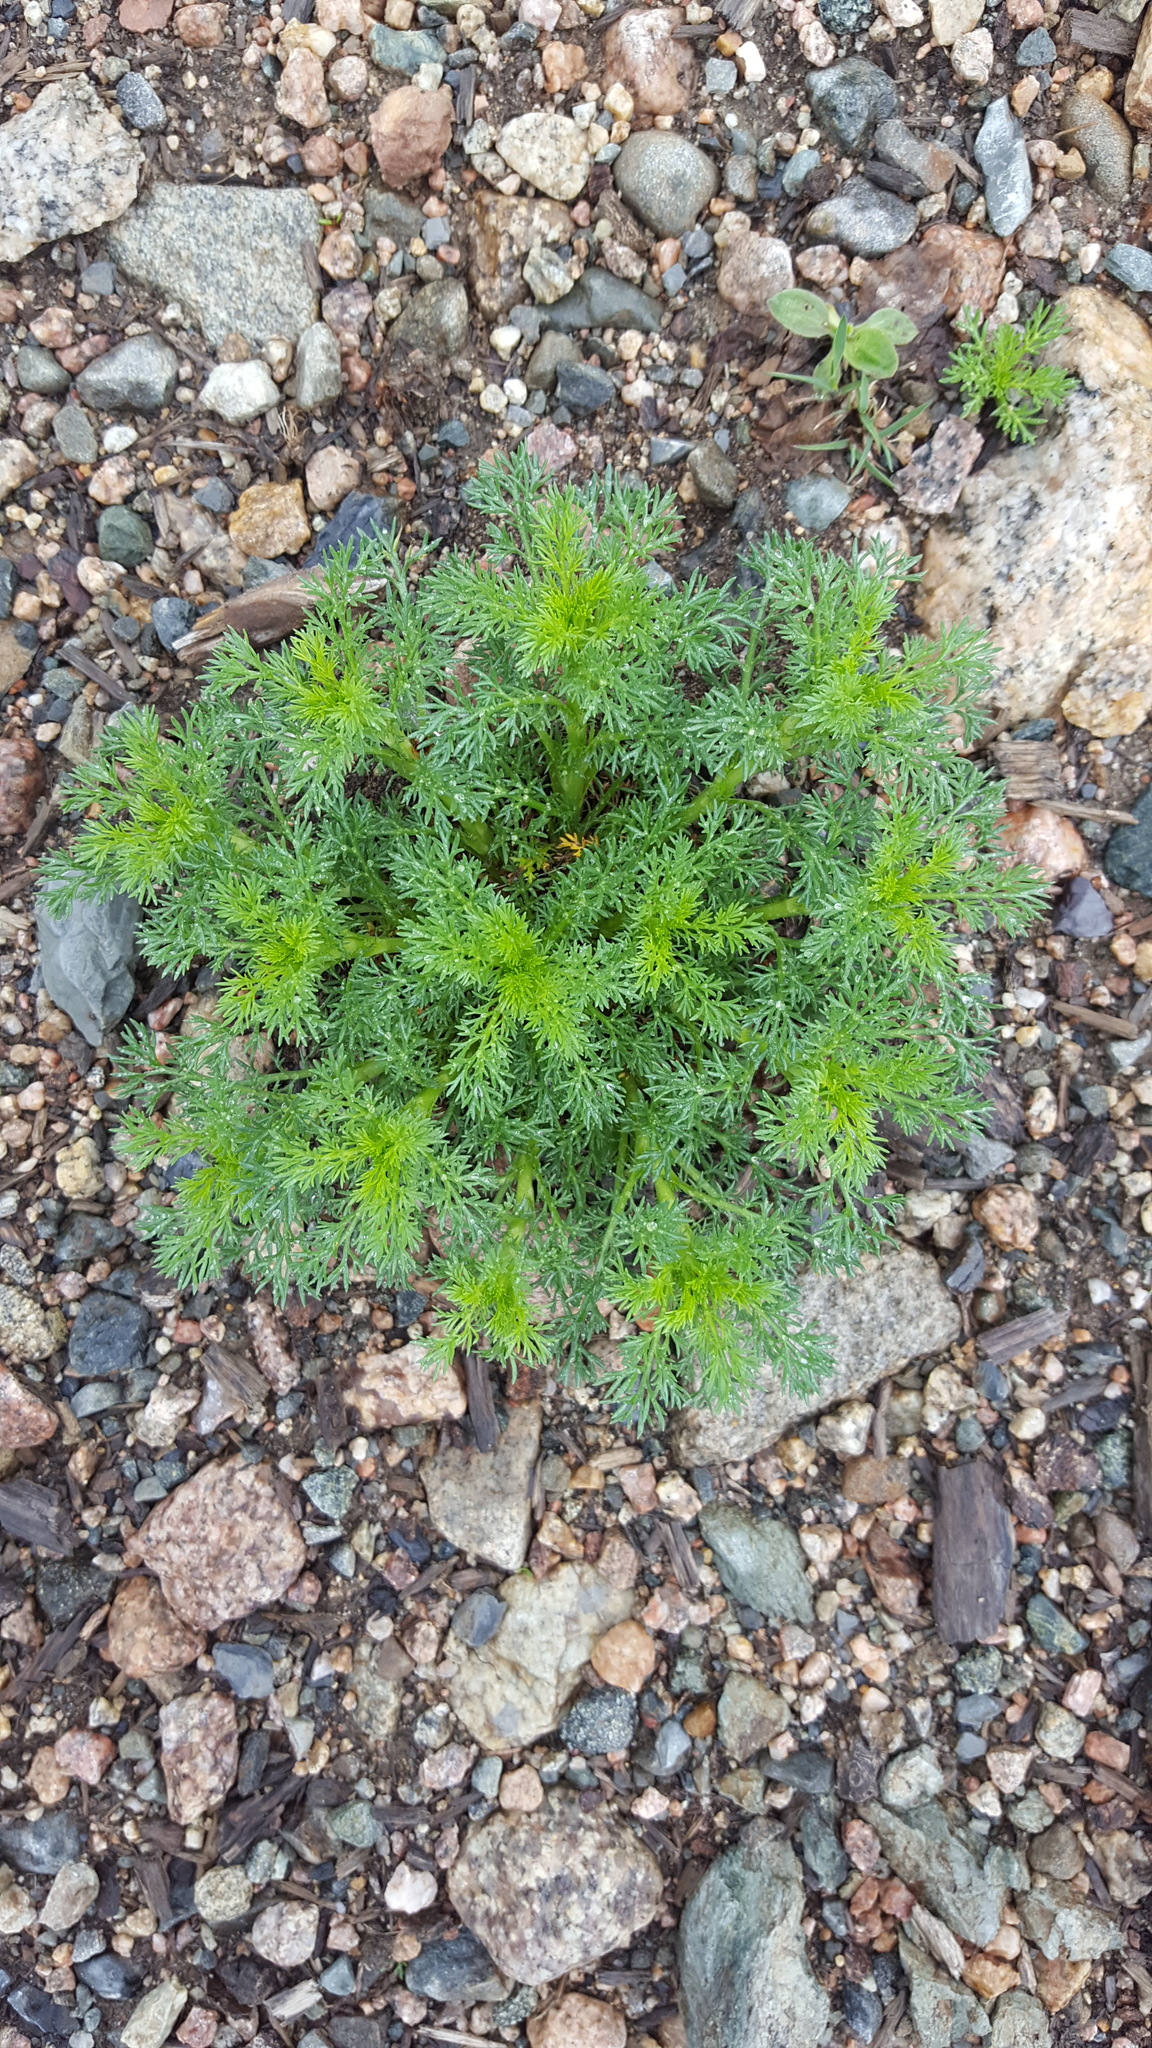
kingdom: Plantae
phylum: Tracheophyta
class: Magnoliopsida
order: Asterales
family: Asteraceae
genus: Matricaria
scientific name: Matricaria discoidea
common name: Disc mayweed
